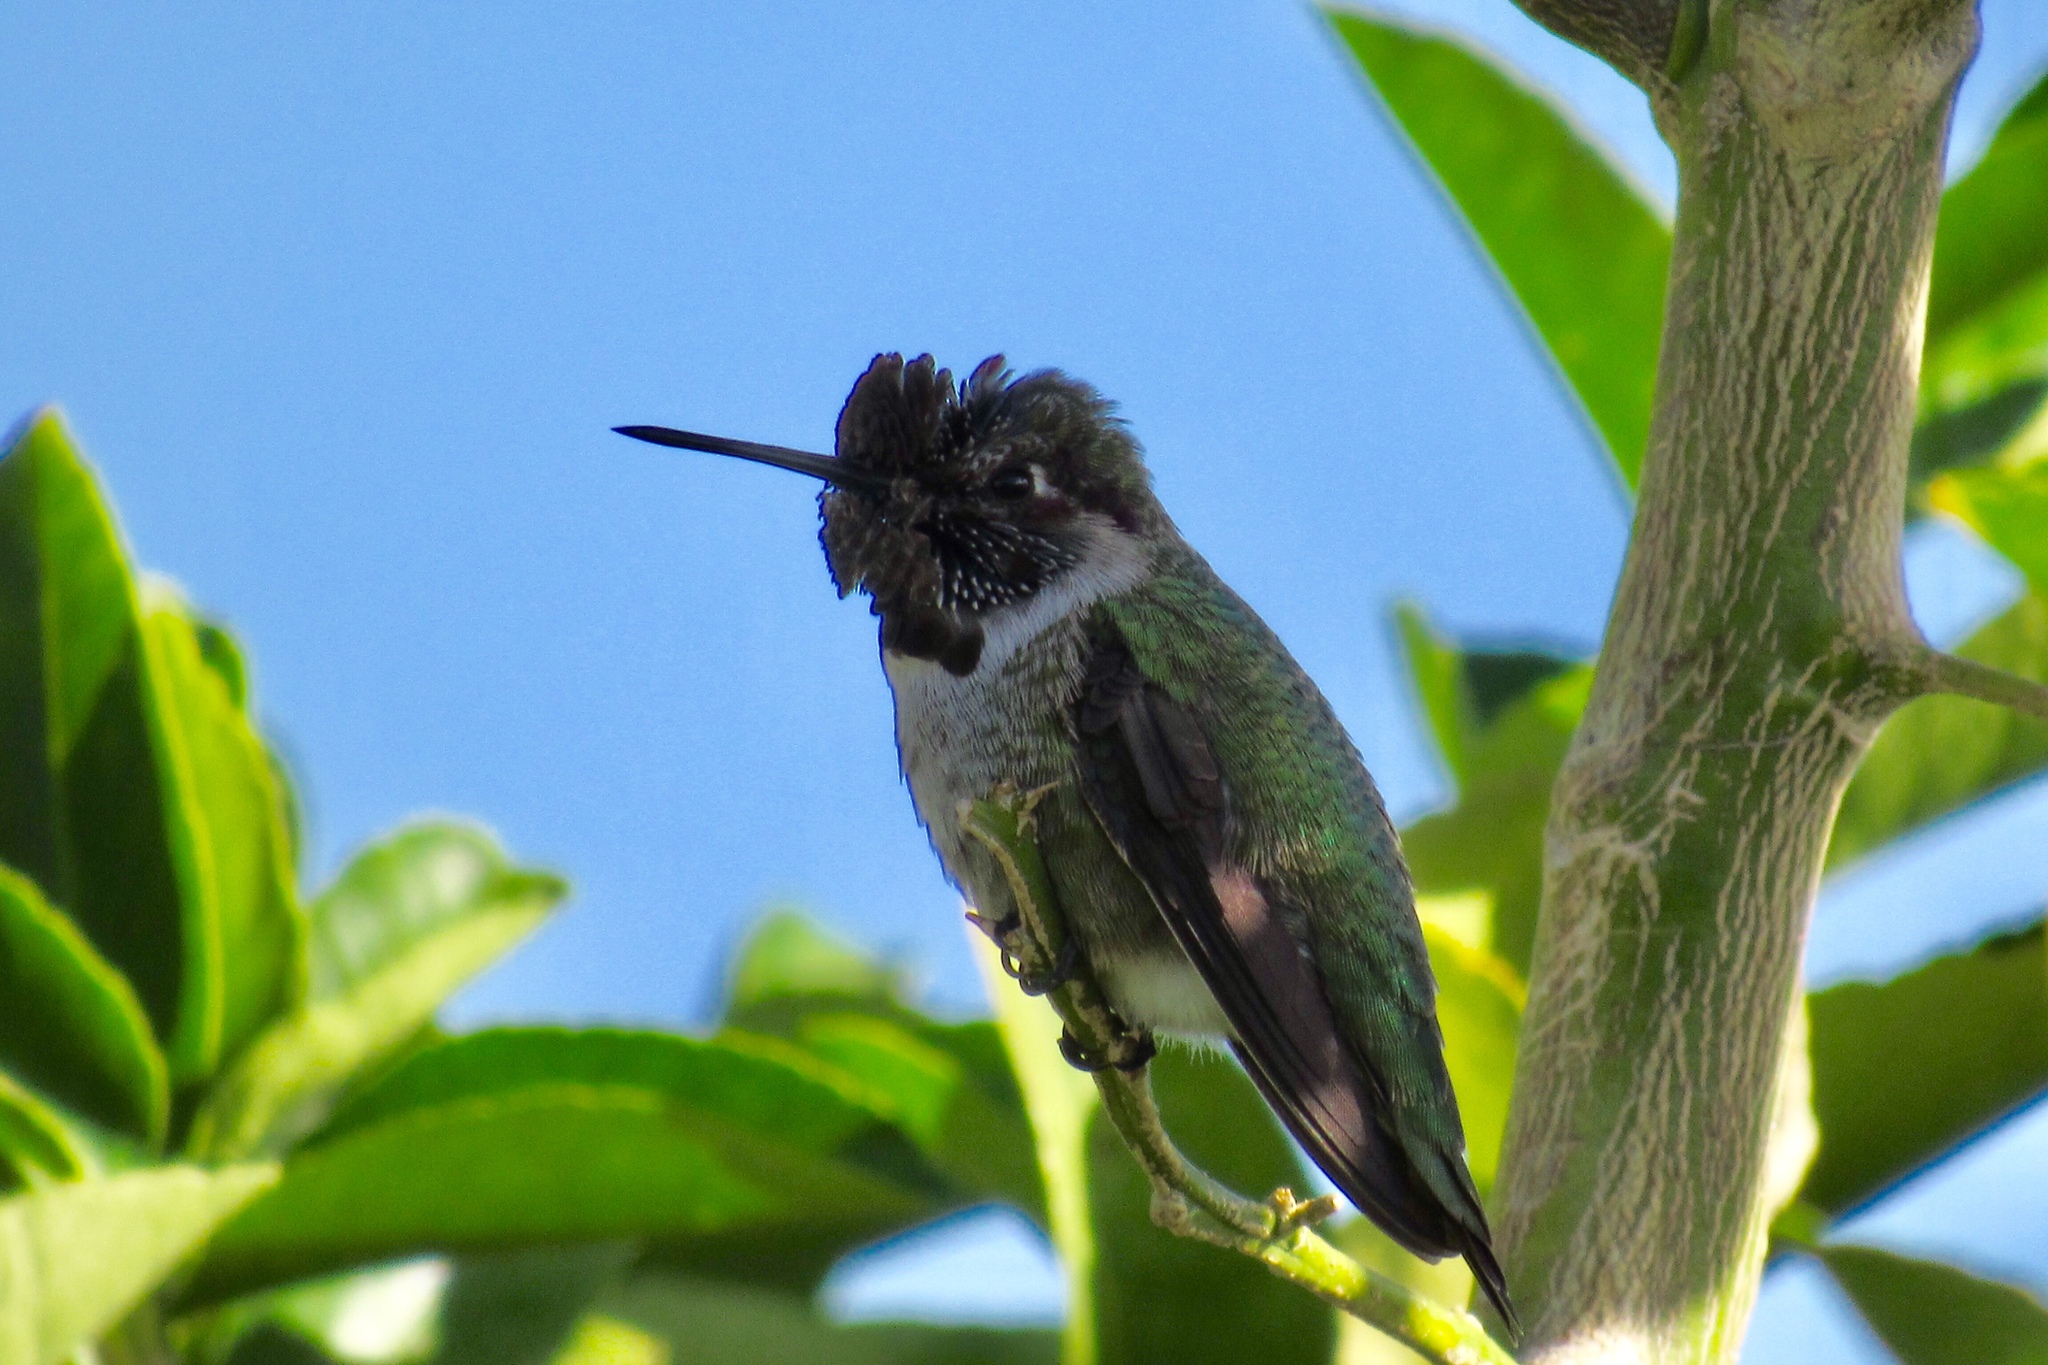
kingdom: Animalia
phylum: Chordata
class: Aves
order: Apodiformes
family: Trochilidae
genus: Calypte
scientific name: Calypte anna
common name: Anna's hummingbird
